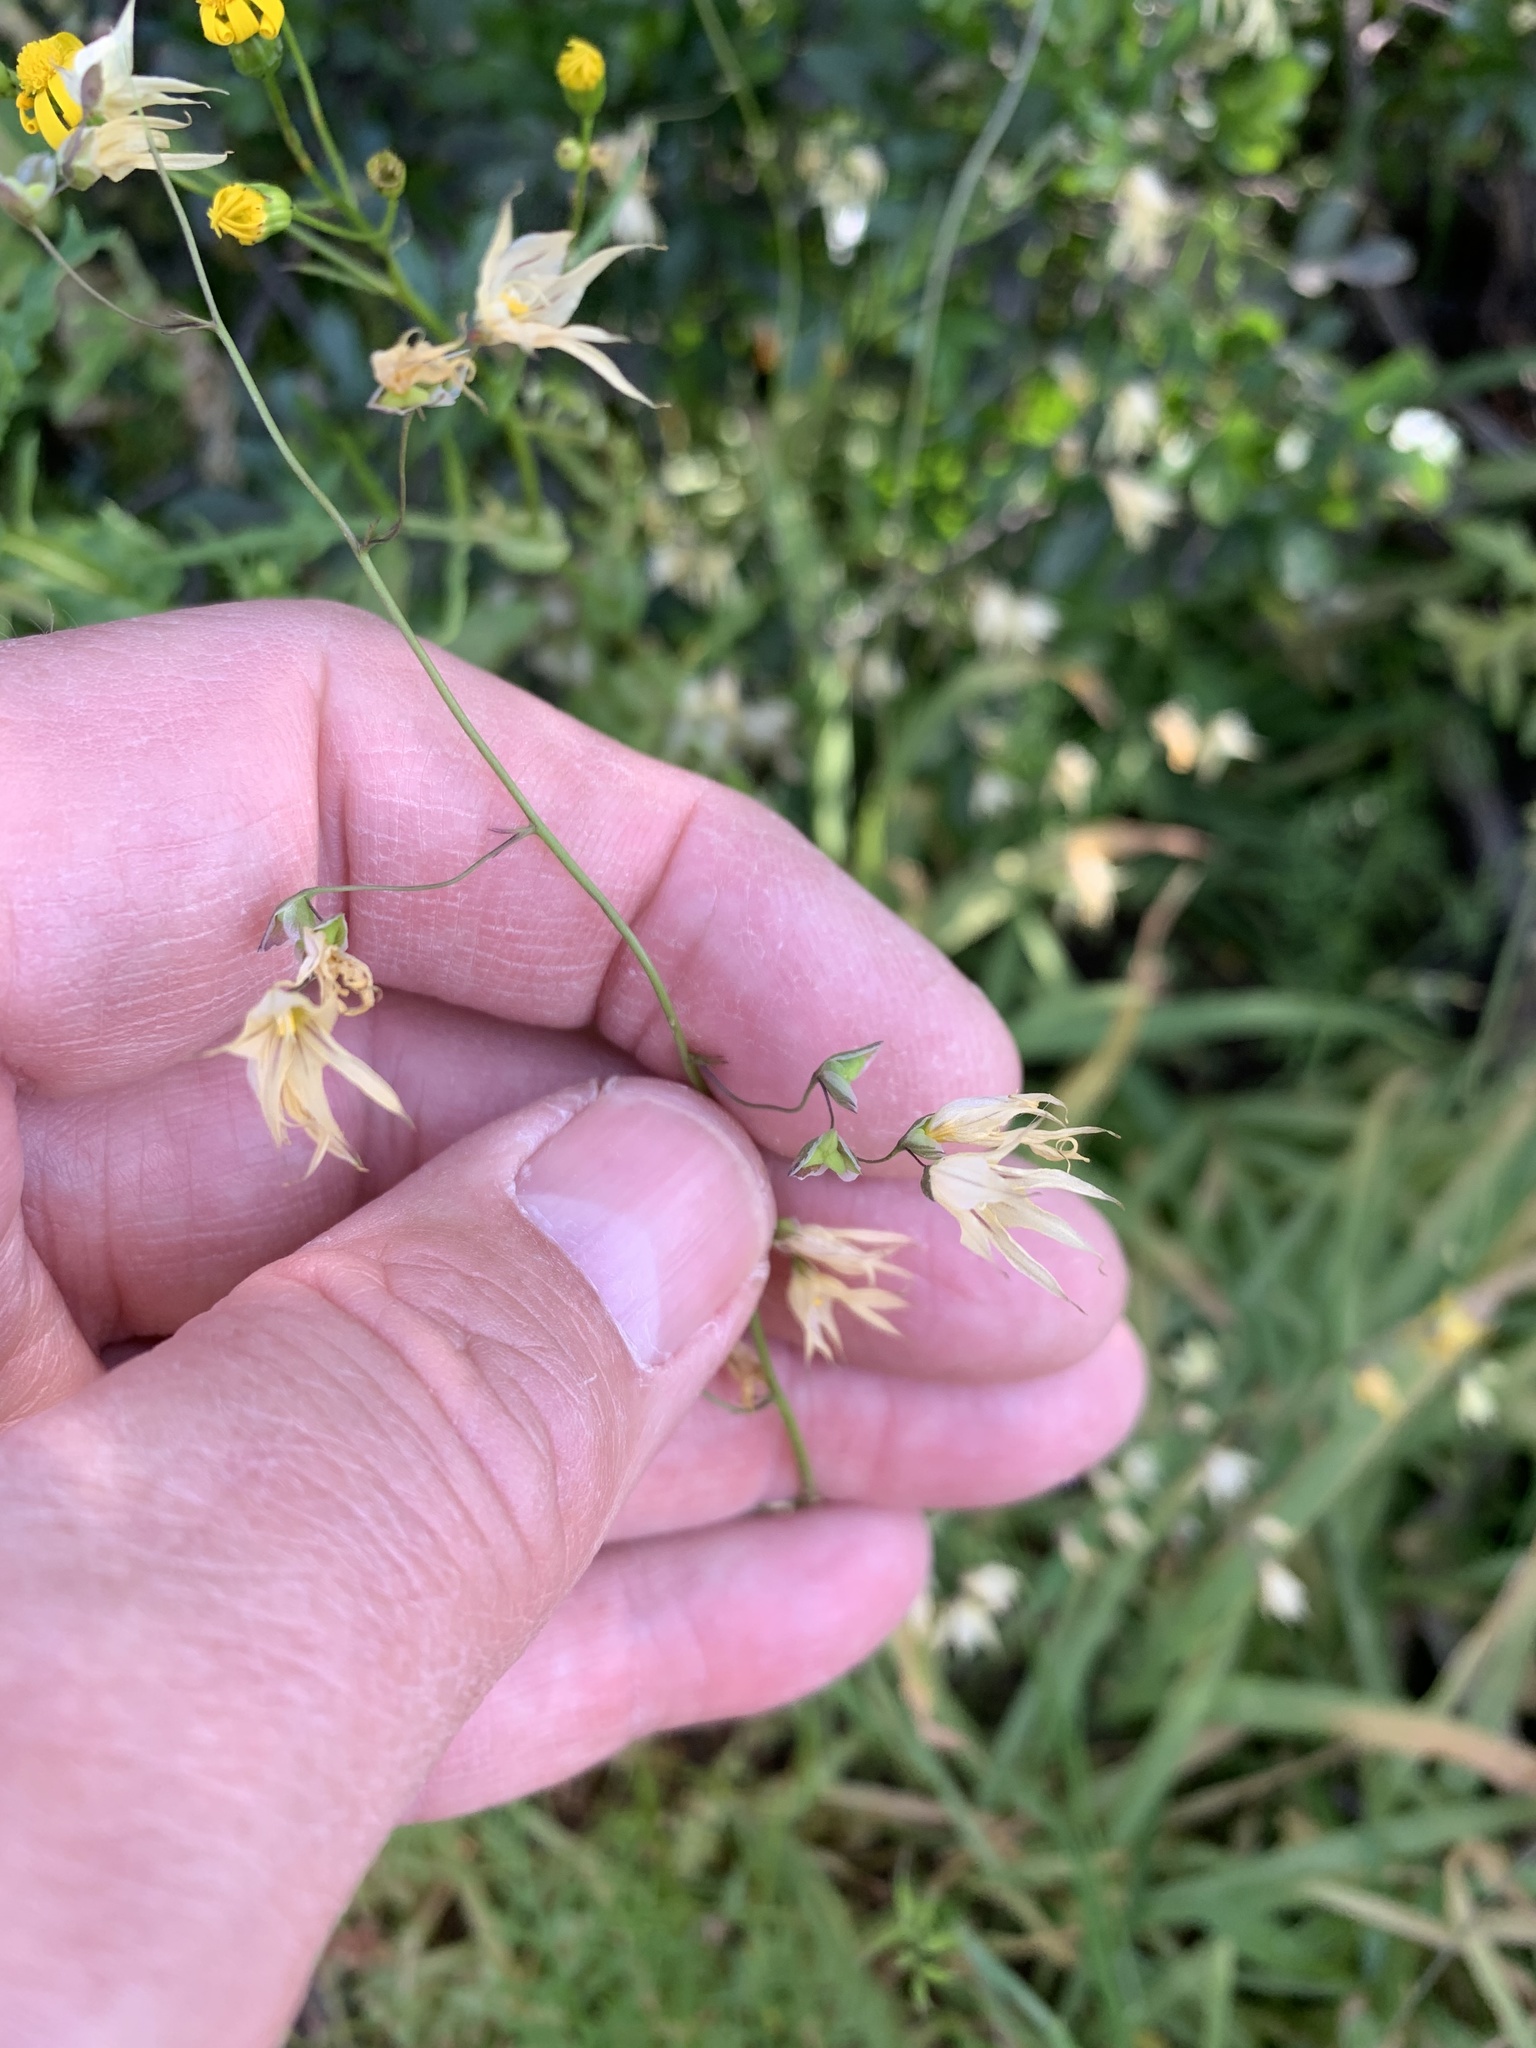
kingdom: Plantae
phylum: Tracheophyta
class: Liliopsida
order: Asparagales
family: Iridaceae
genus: Melasphaerula
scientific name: Melasphaerula graminea
